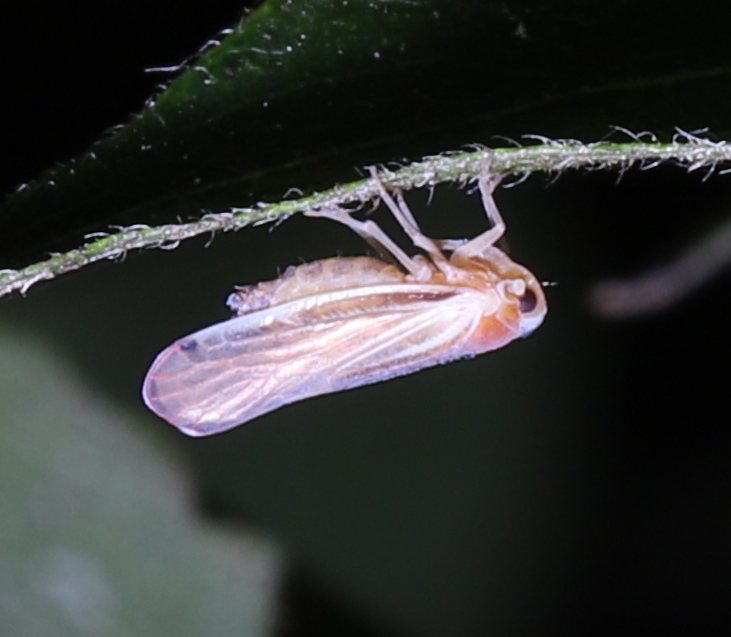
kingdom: Animalia
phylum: Arthropoda
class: Insecta
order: Hemiptera
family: Derbidae
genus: Omolicna
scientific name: Omolicna uhleri
